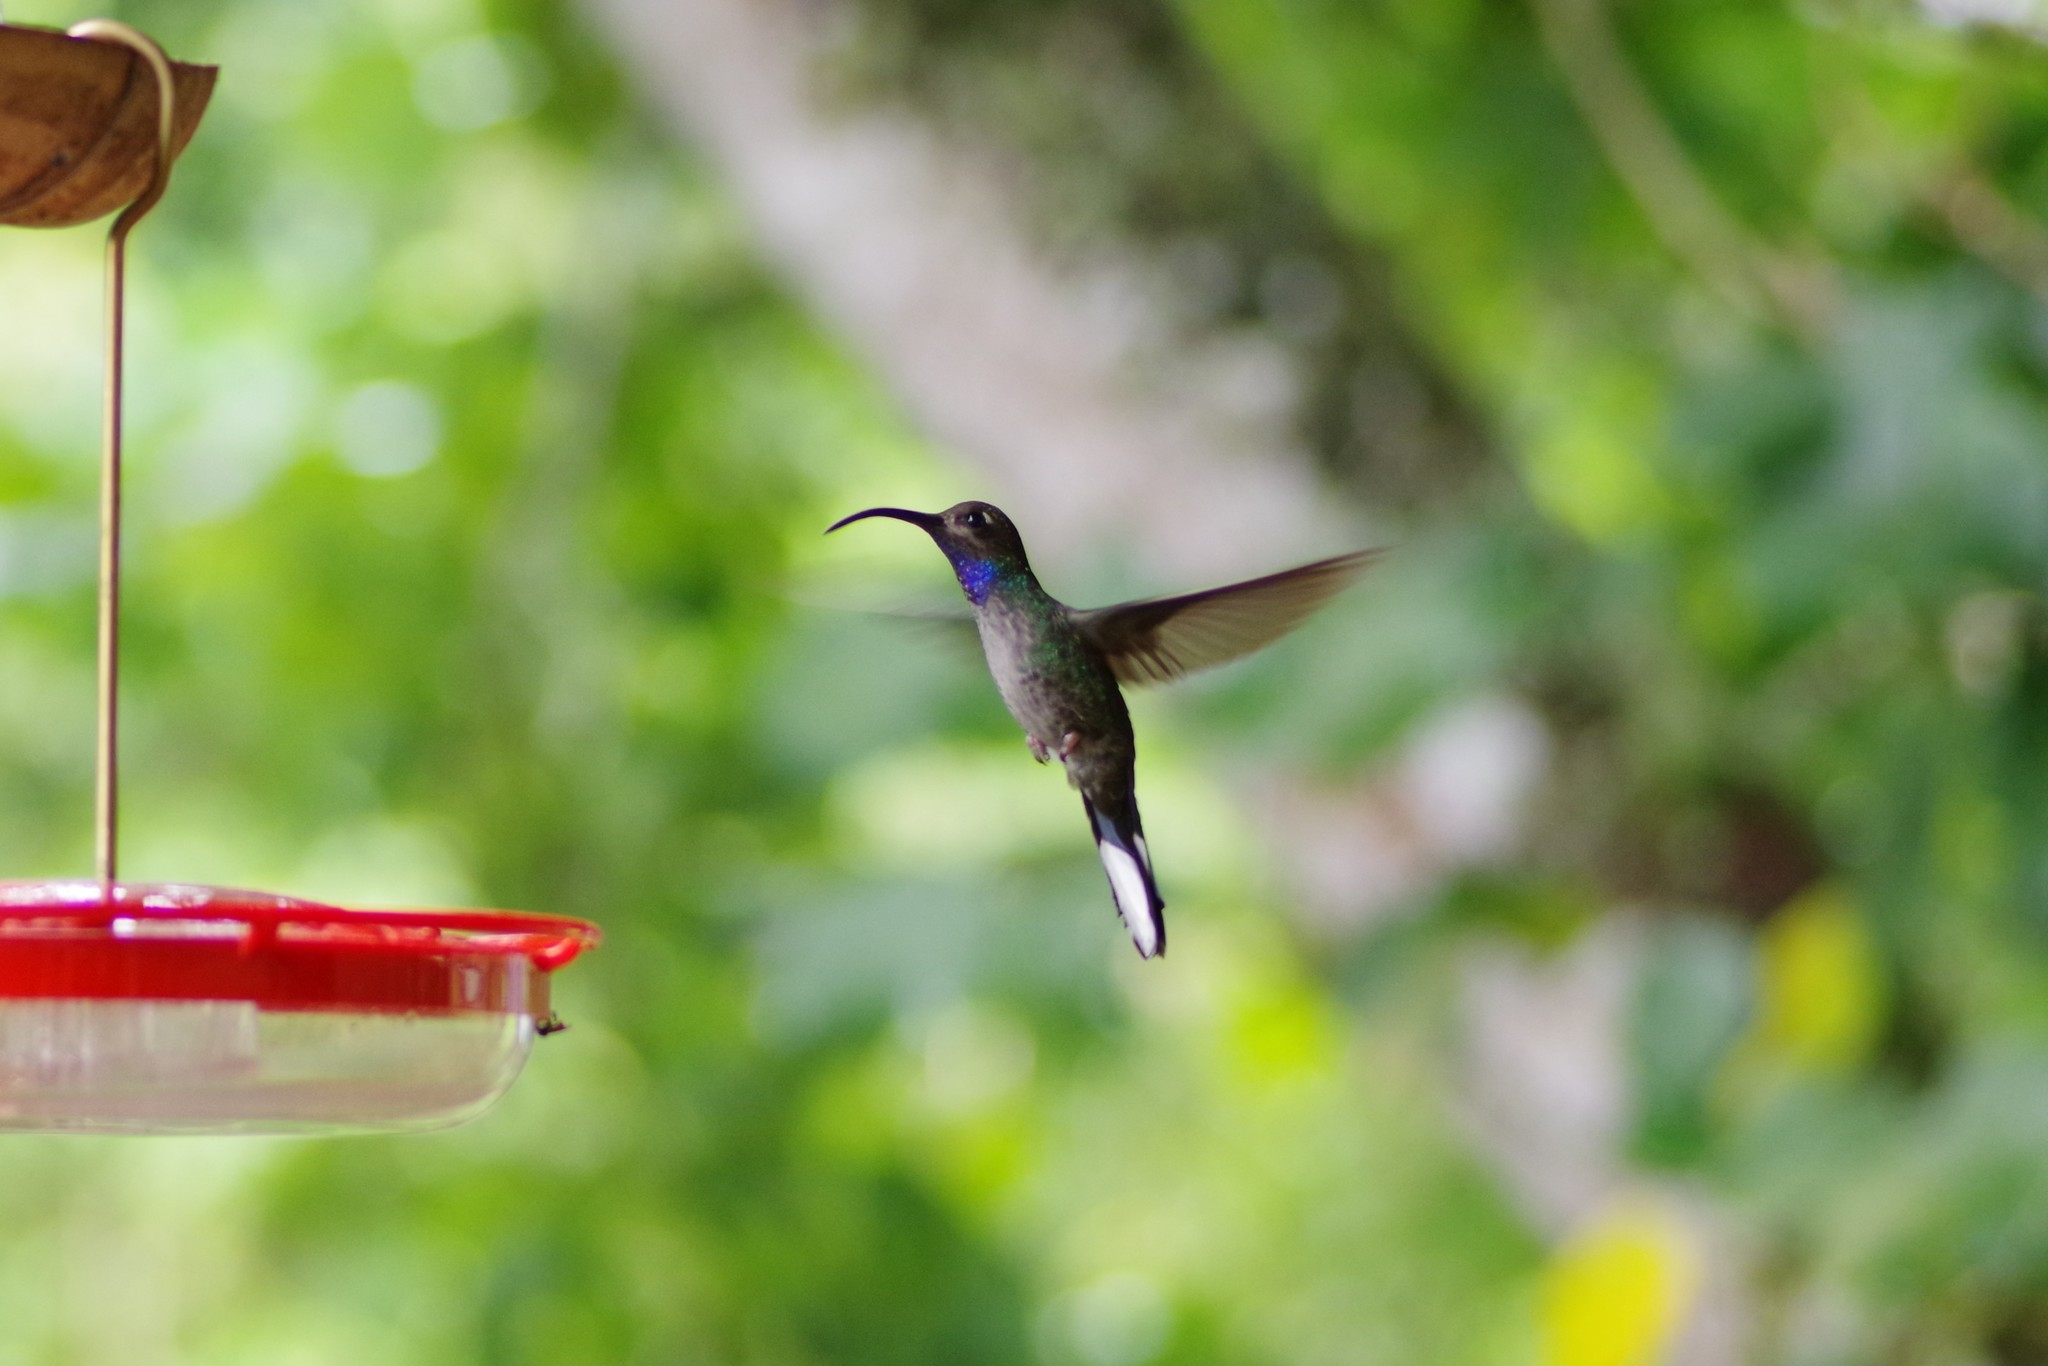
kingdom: Animalia
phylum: Chordata
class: Aves
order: Apodiformes
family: Trochilidae
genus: Campylopterus
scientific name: Campylopterus hemileucurus
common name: Violet sabrewing
